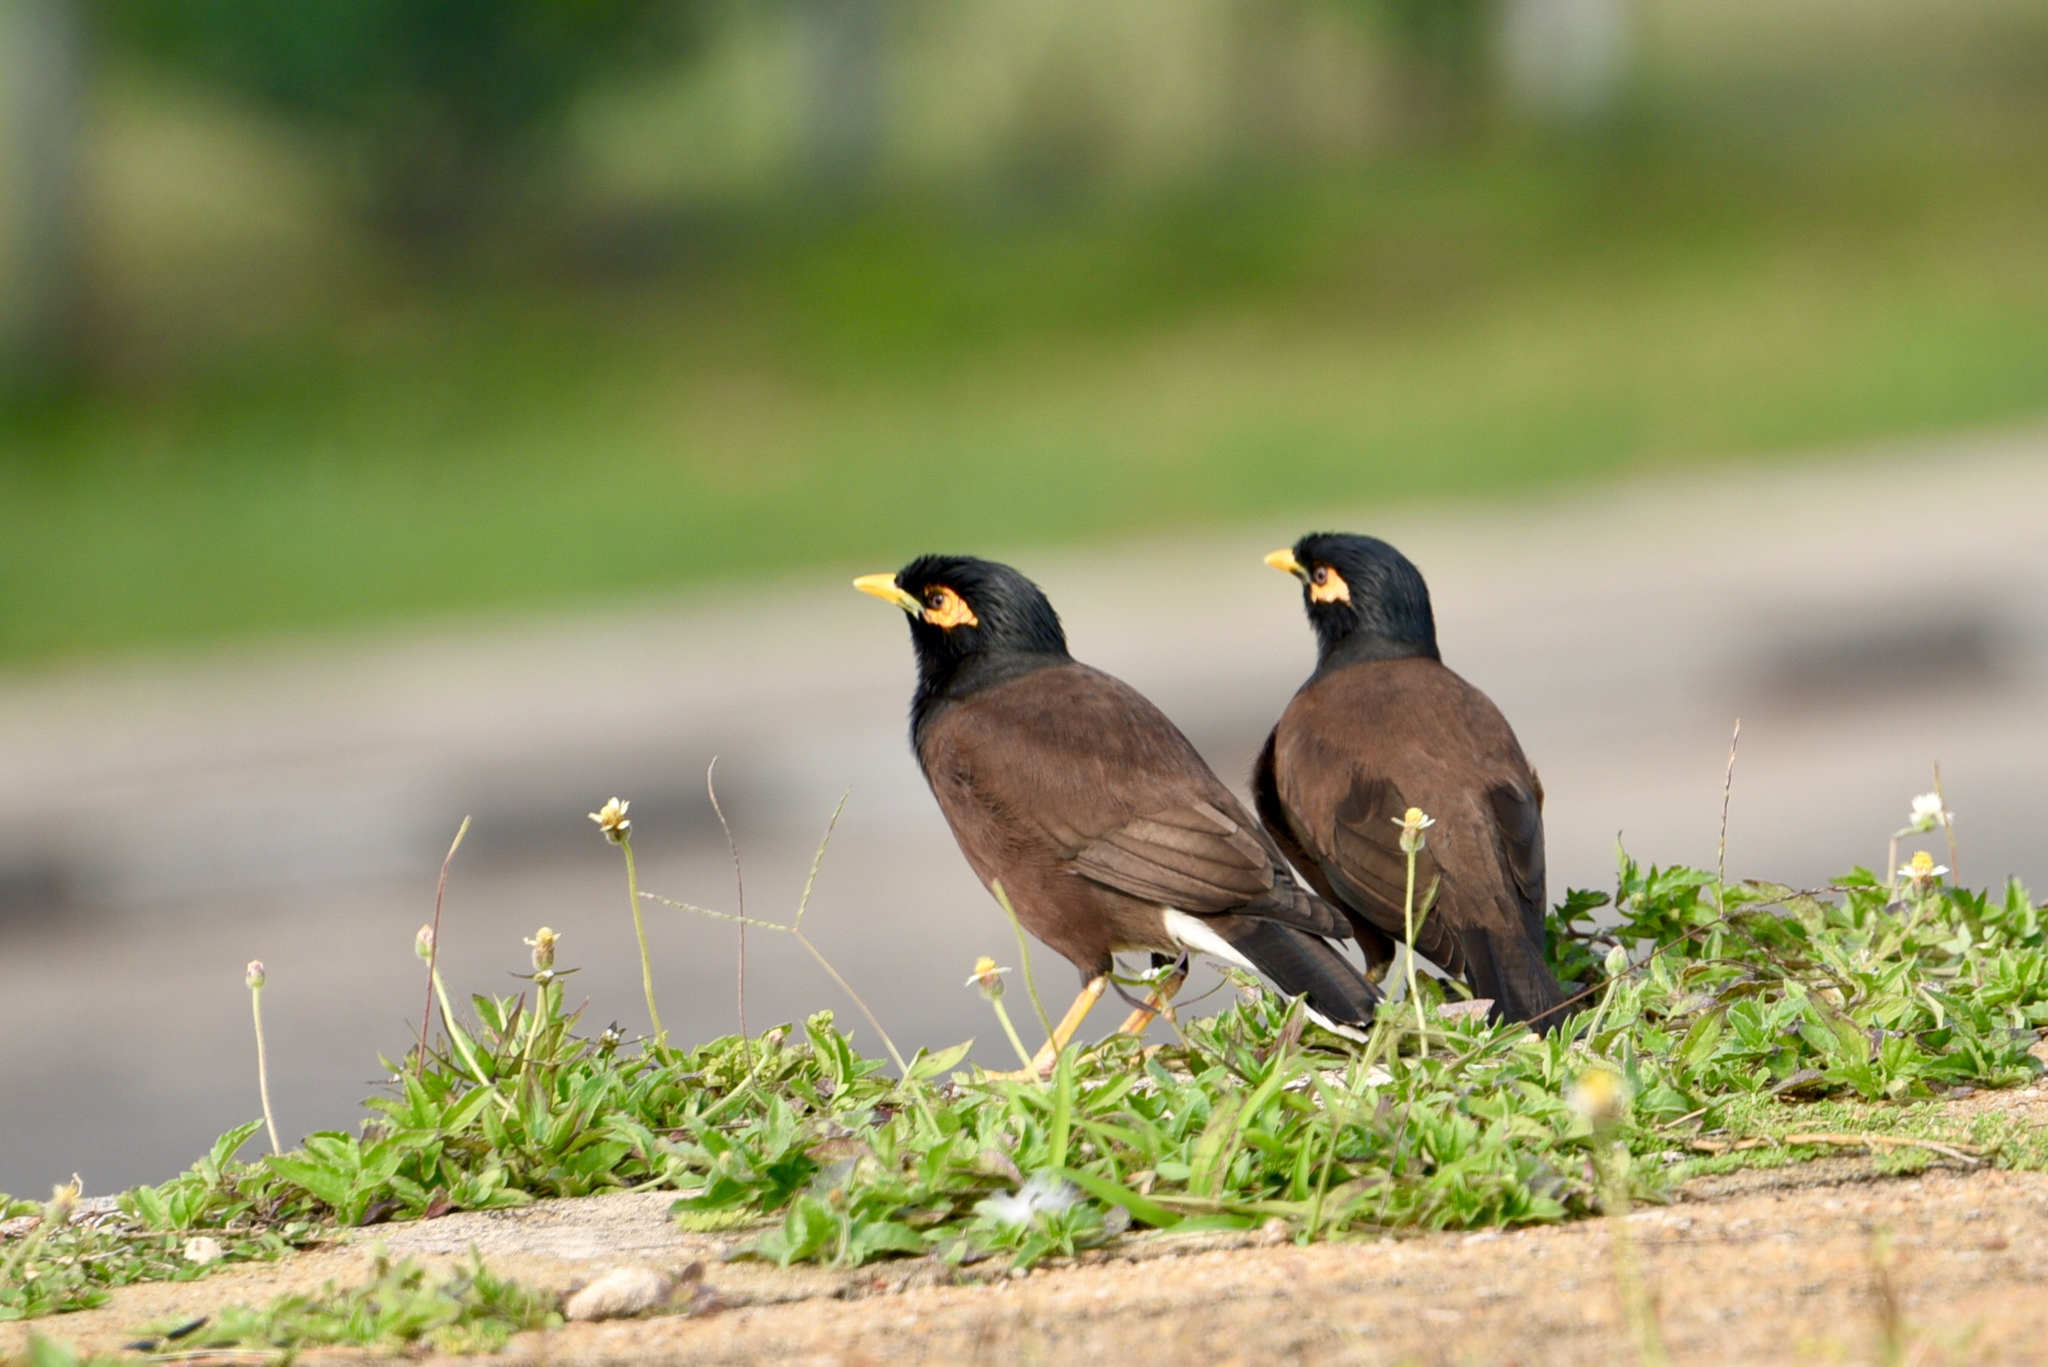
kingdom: Animalia
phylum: Chordata
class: Aves
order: Passeriformes
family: Sturnidae
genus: Acridotheres
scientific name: Acridotheres tristis
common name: Common myna
